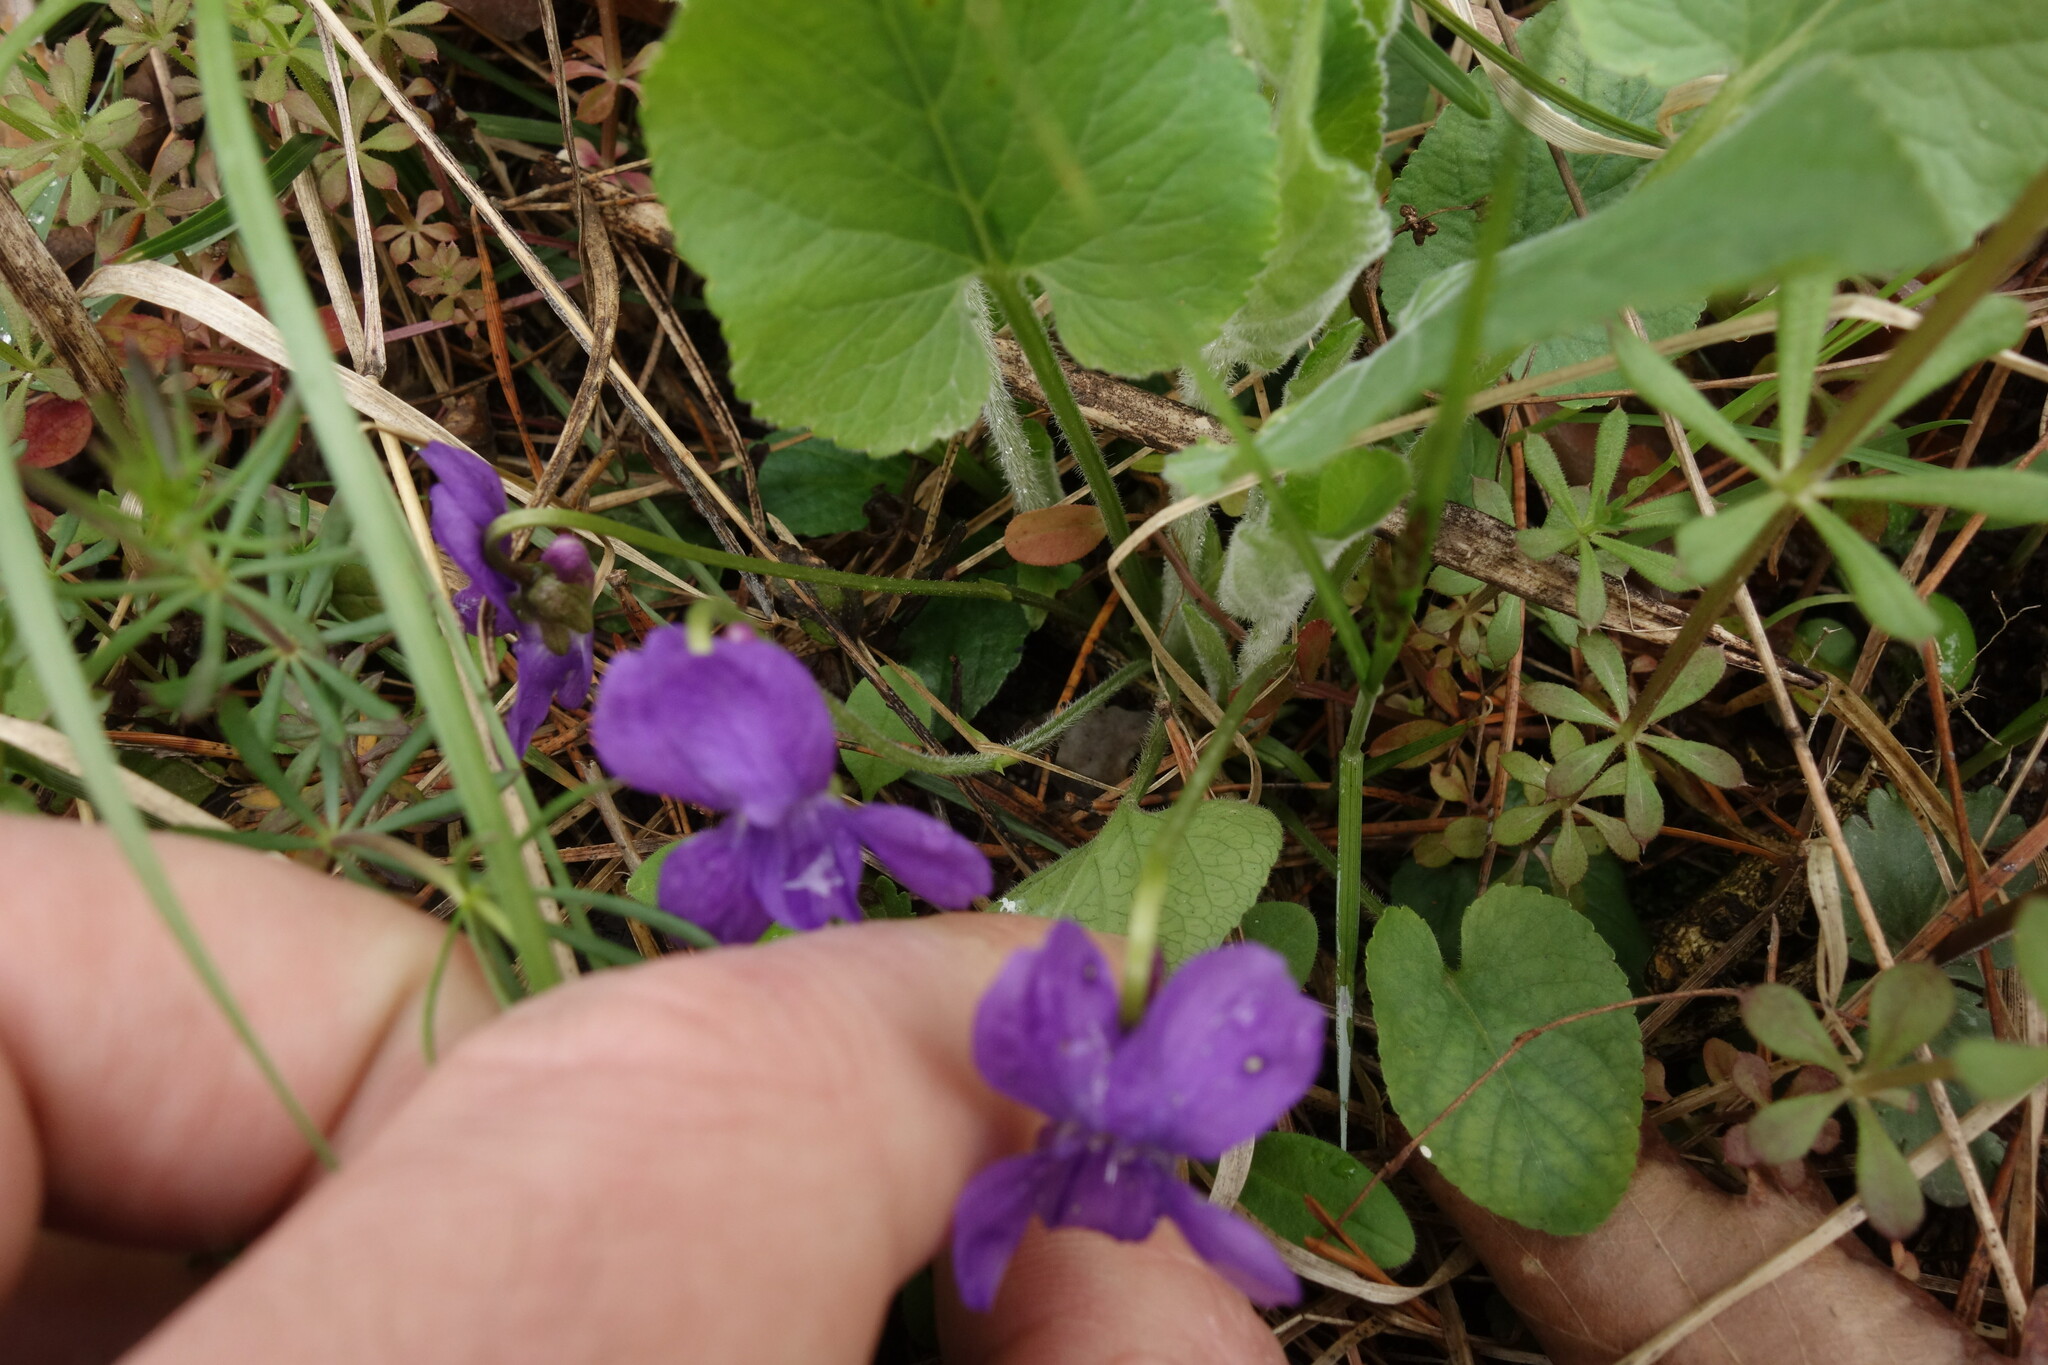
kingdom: Plantae
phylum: Tracheophyta
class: Magnoliopsida
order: Malpighiales
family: Violaceae
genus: Viola
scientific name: Viola hirta
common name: Hairy violet
